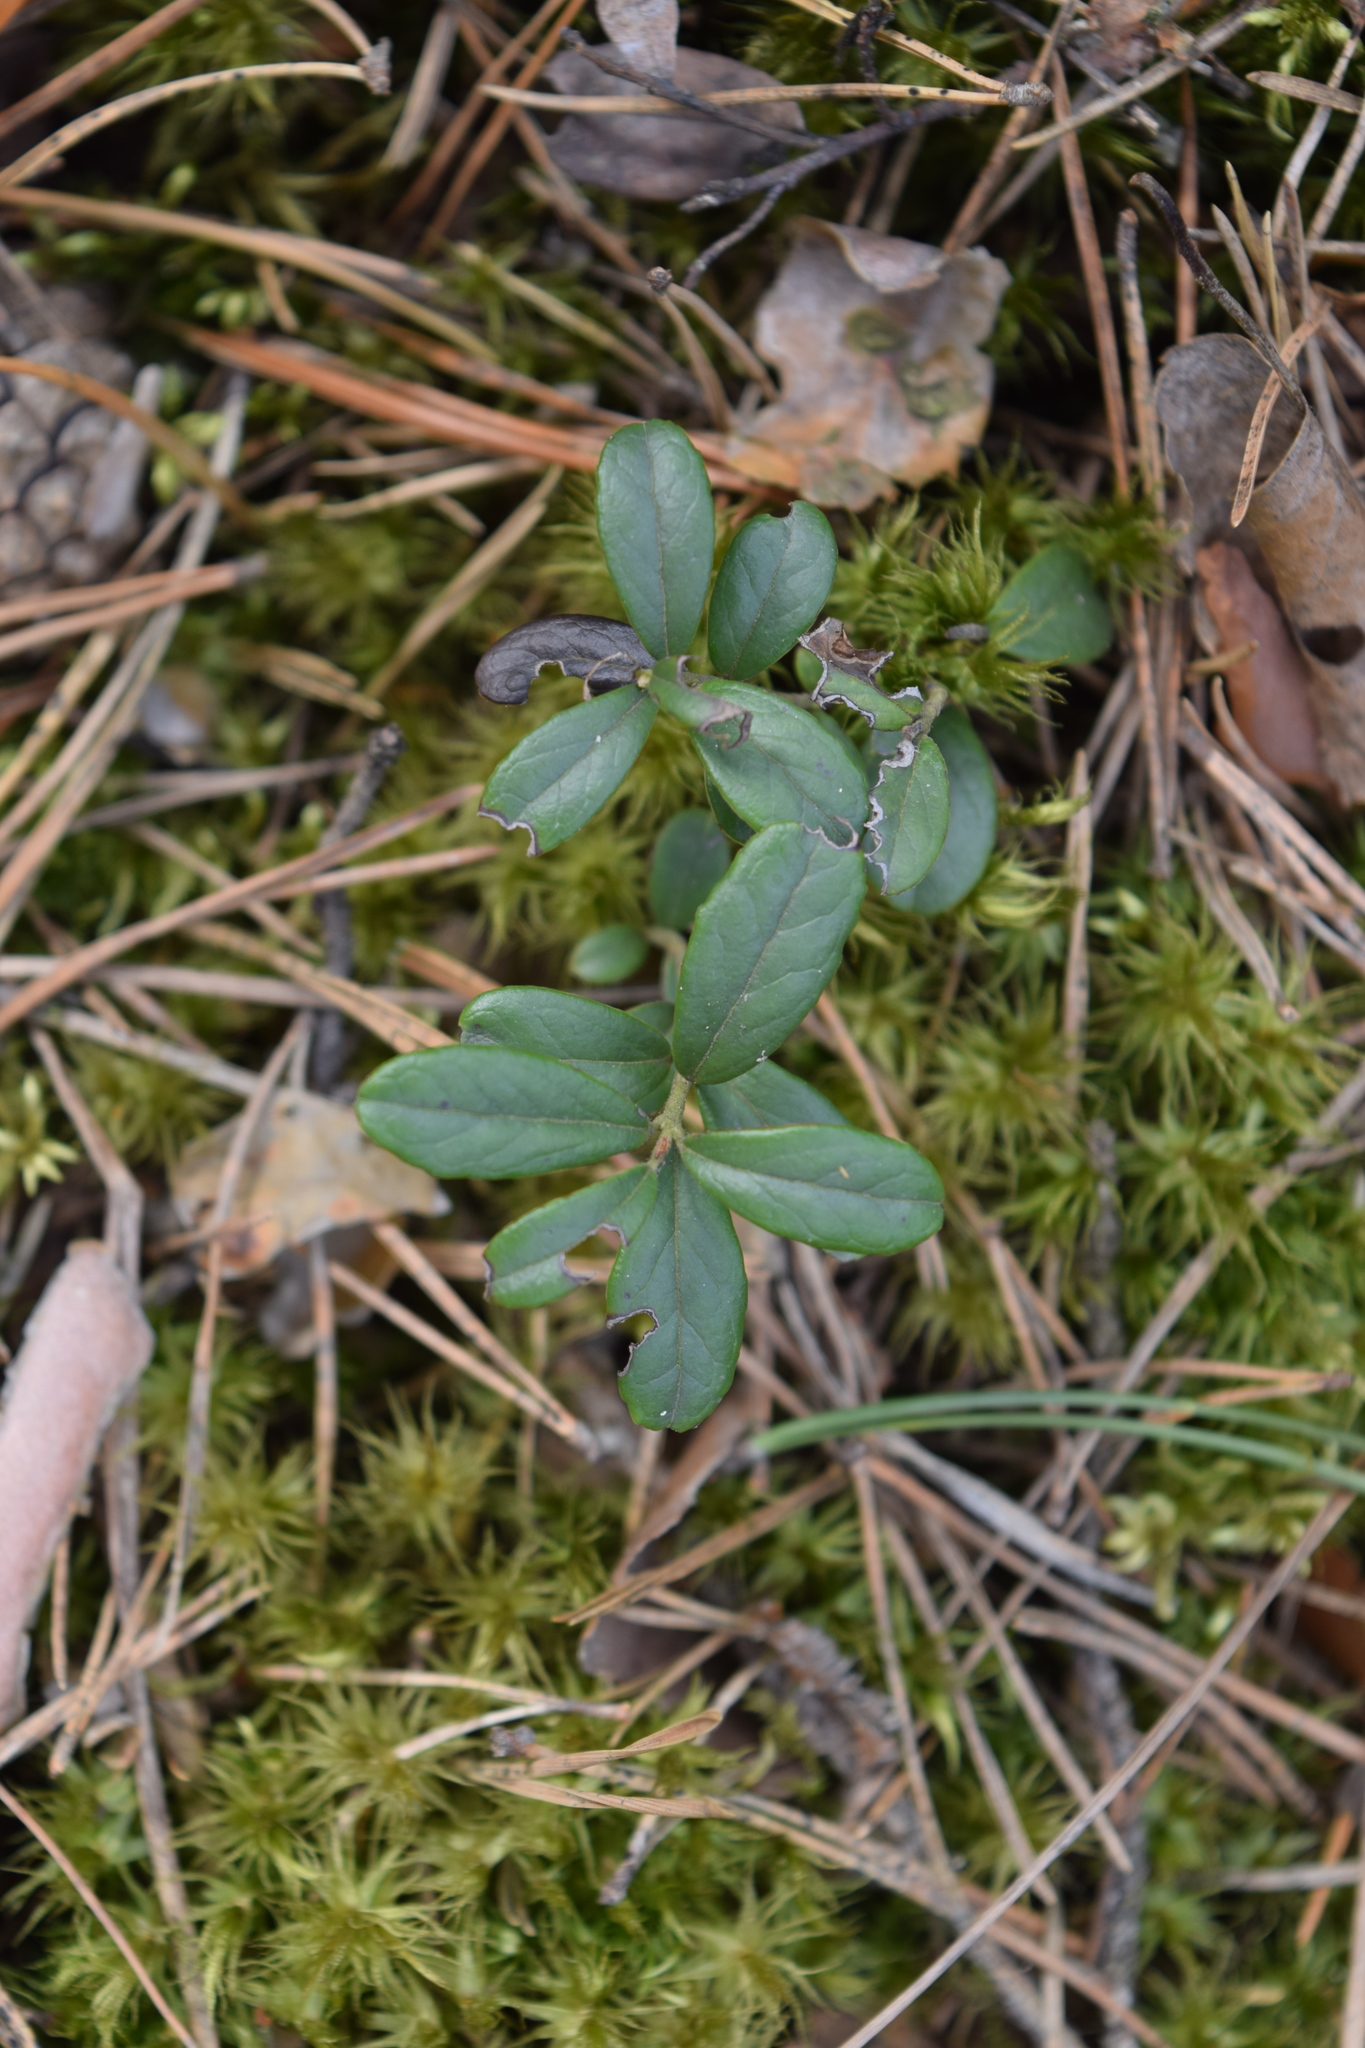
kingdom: Plantae
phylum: Tracheophyta
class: Magnoliopsida
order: Ericales
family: Ericaceae
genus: Vaccinium
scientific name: Vaccinium vitis-idaea
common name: Cowberry
